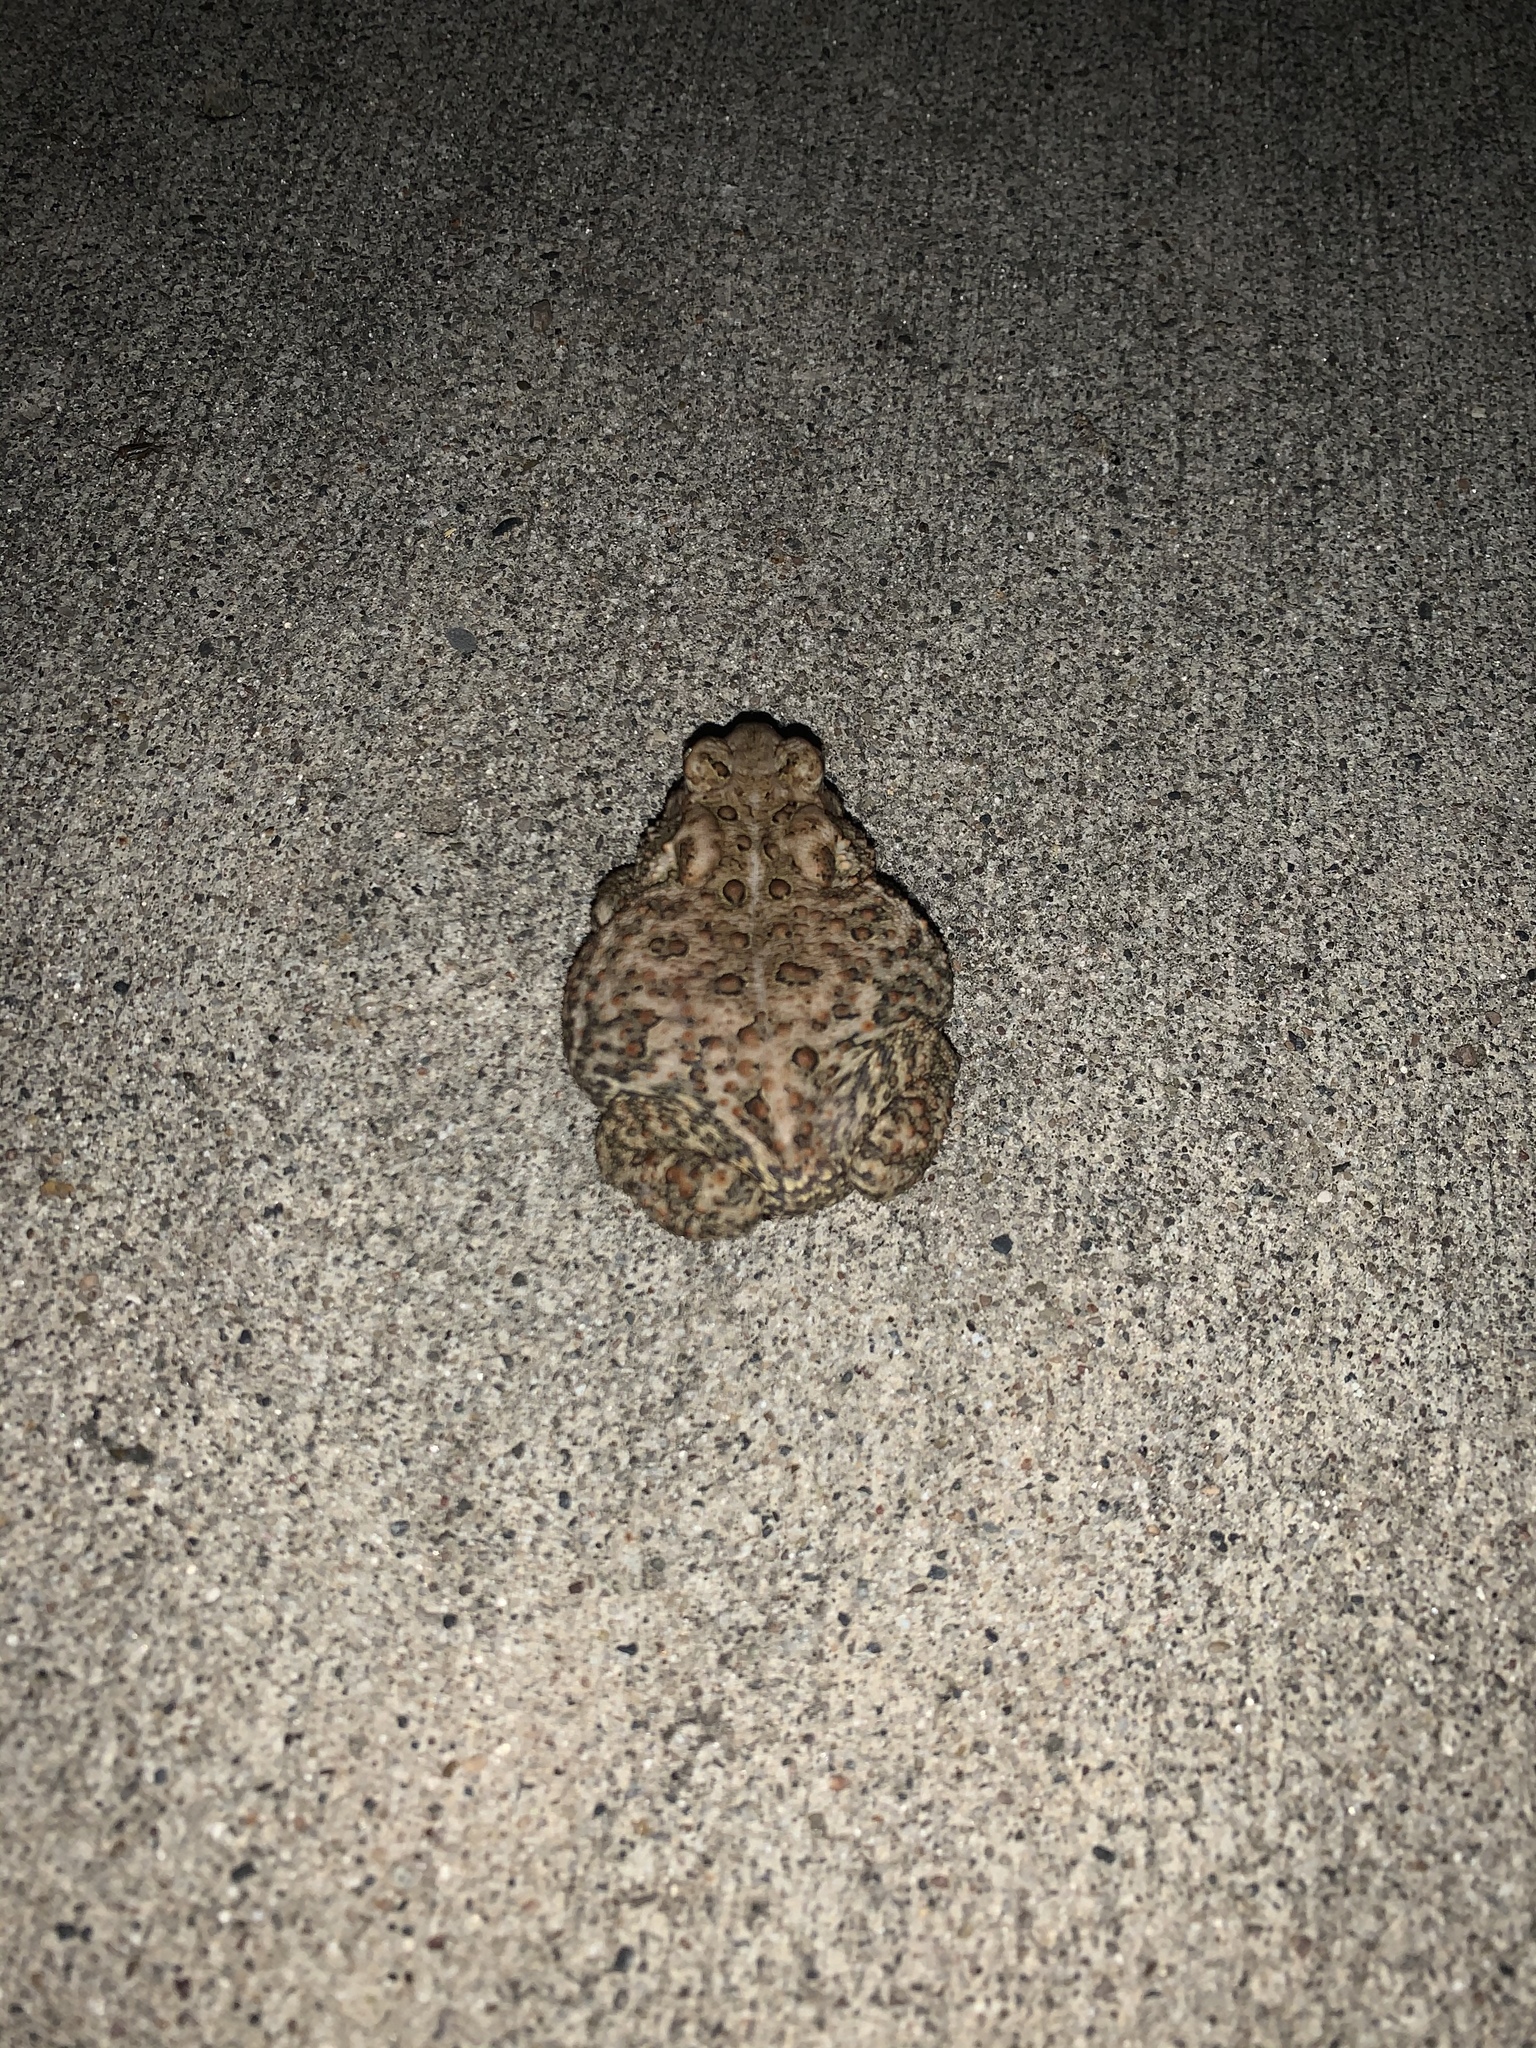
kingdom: Animalia
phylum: Chordata
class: Amphibia
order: Anura
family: Bufonidae
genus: Anaxyrus
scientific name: Anaxyrus americanus
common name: American toad
